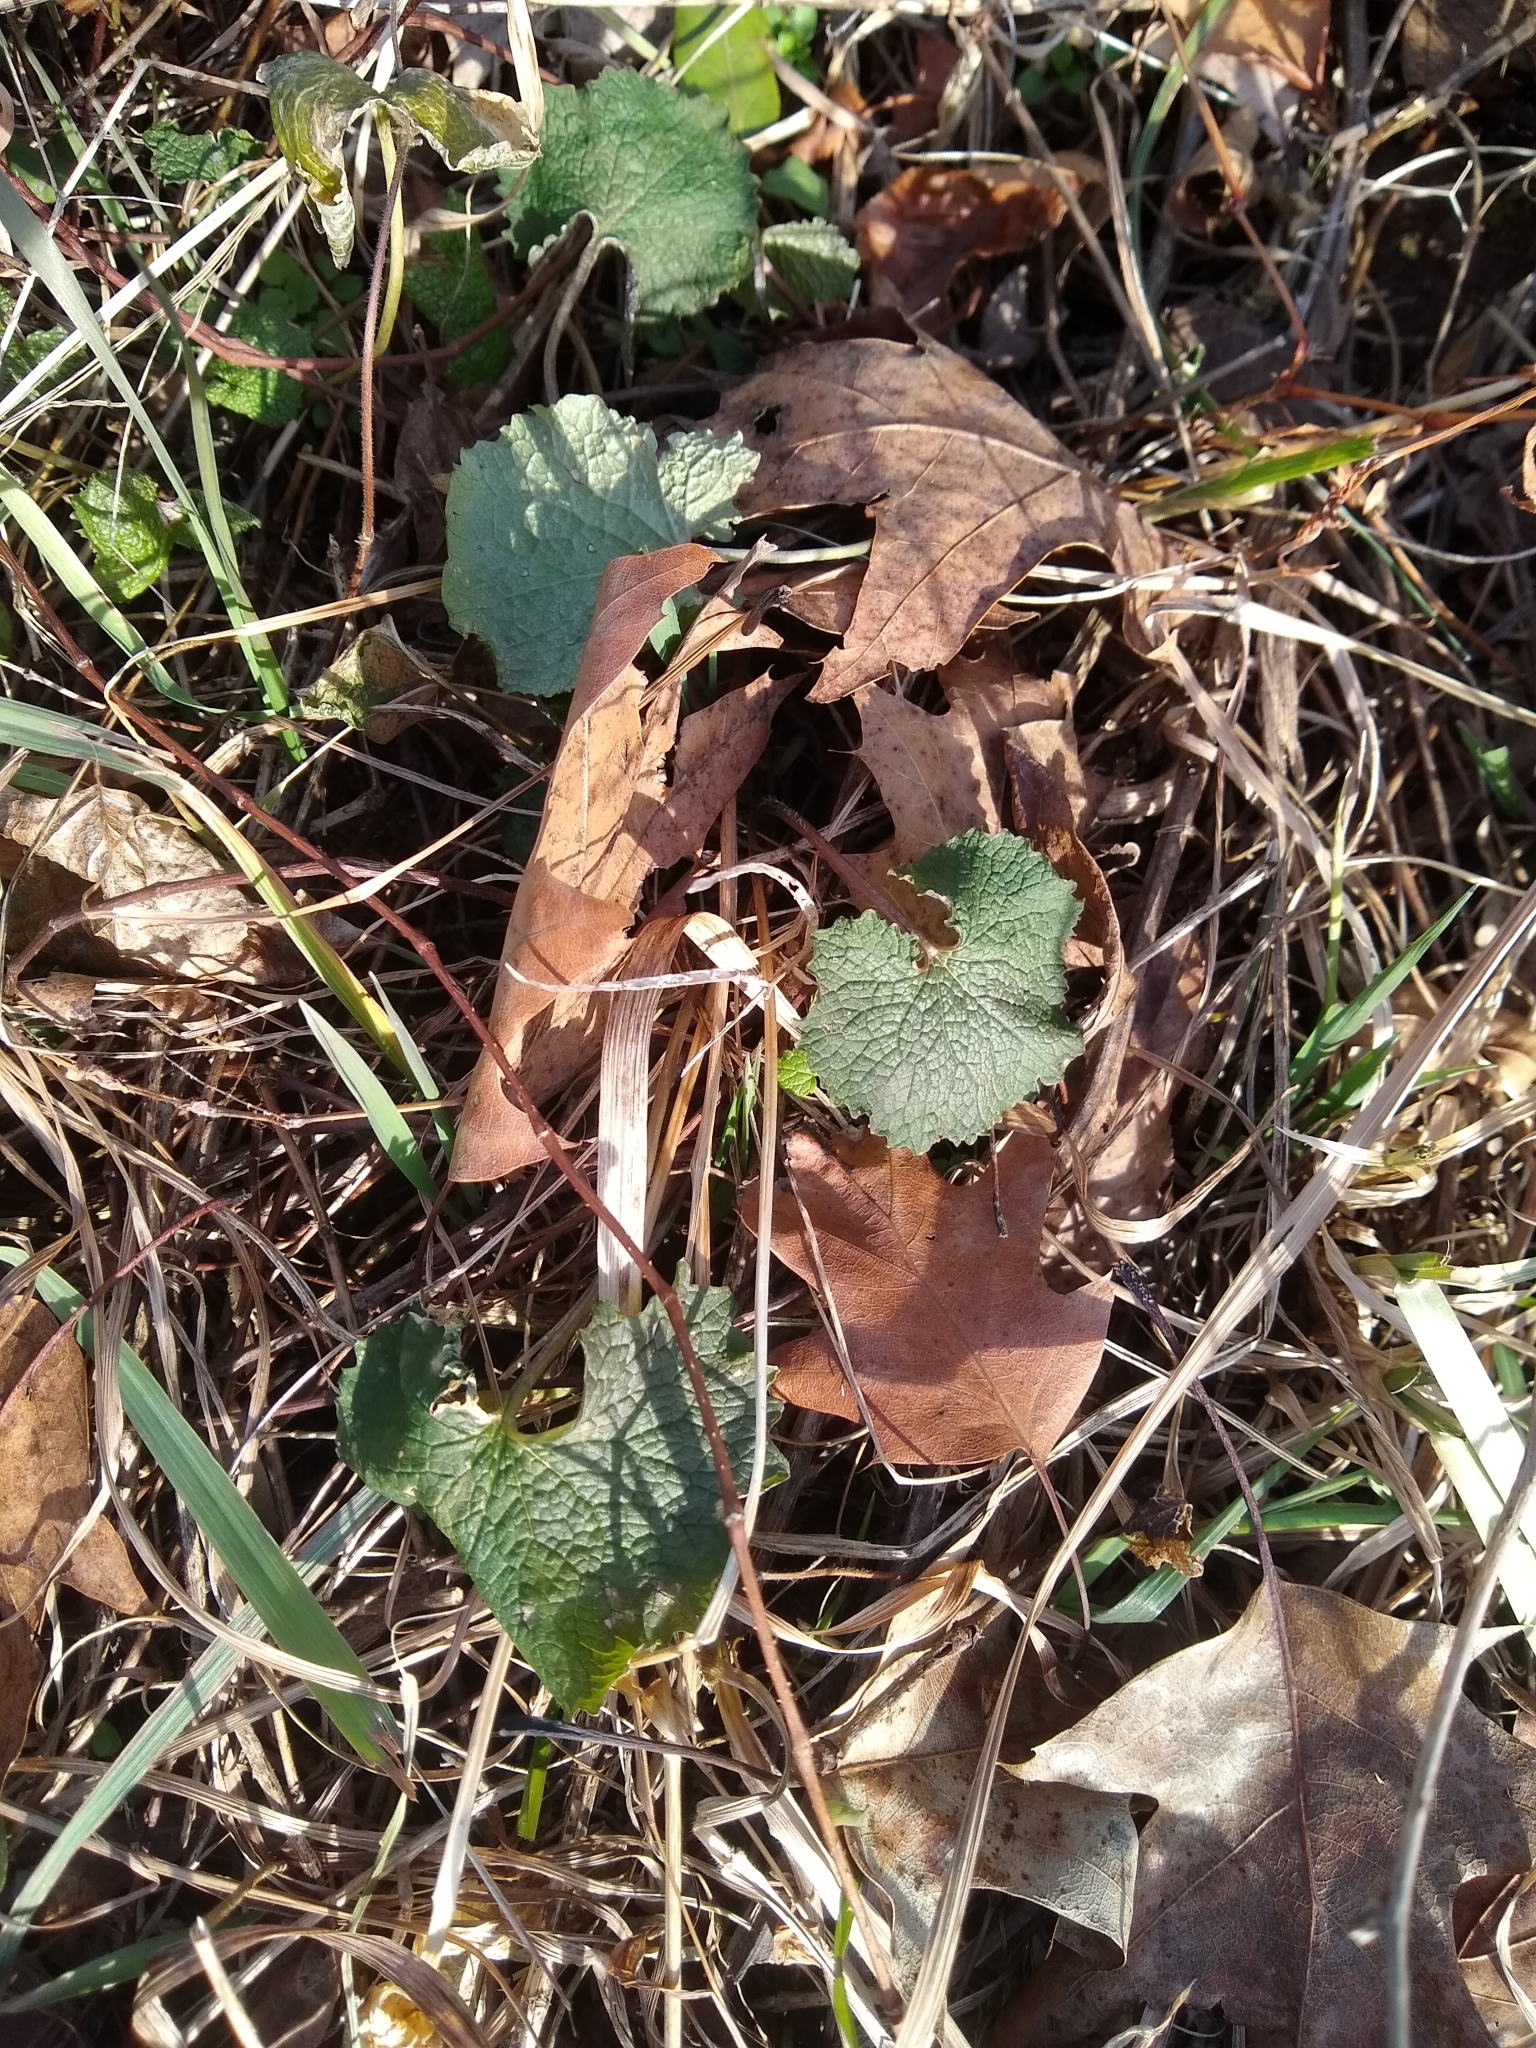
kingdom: Plantae
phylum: Tracheophyta
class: Magnoliopsida
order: Brassicales
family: Brassicaceae
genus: Alliaria
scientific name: Alliaria petiolata
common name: Garlic mustard
